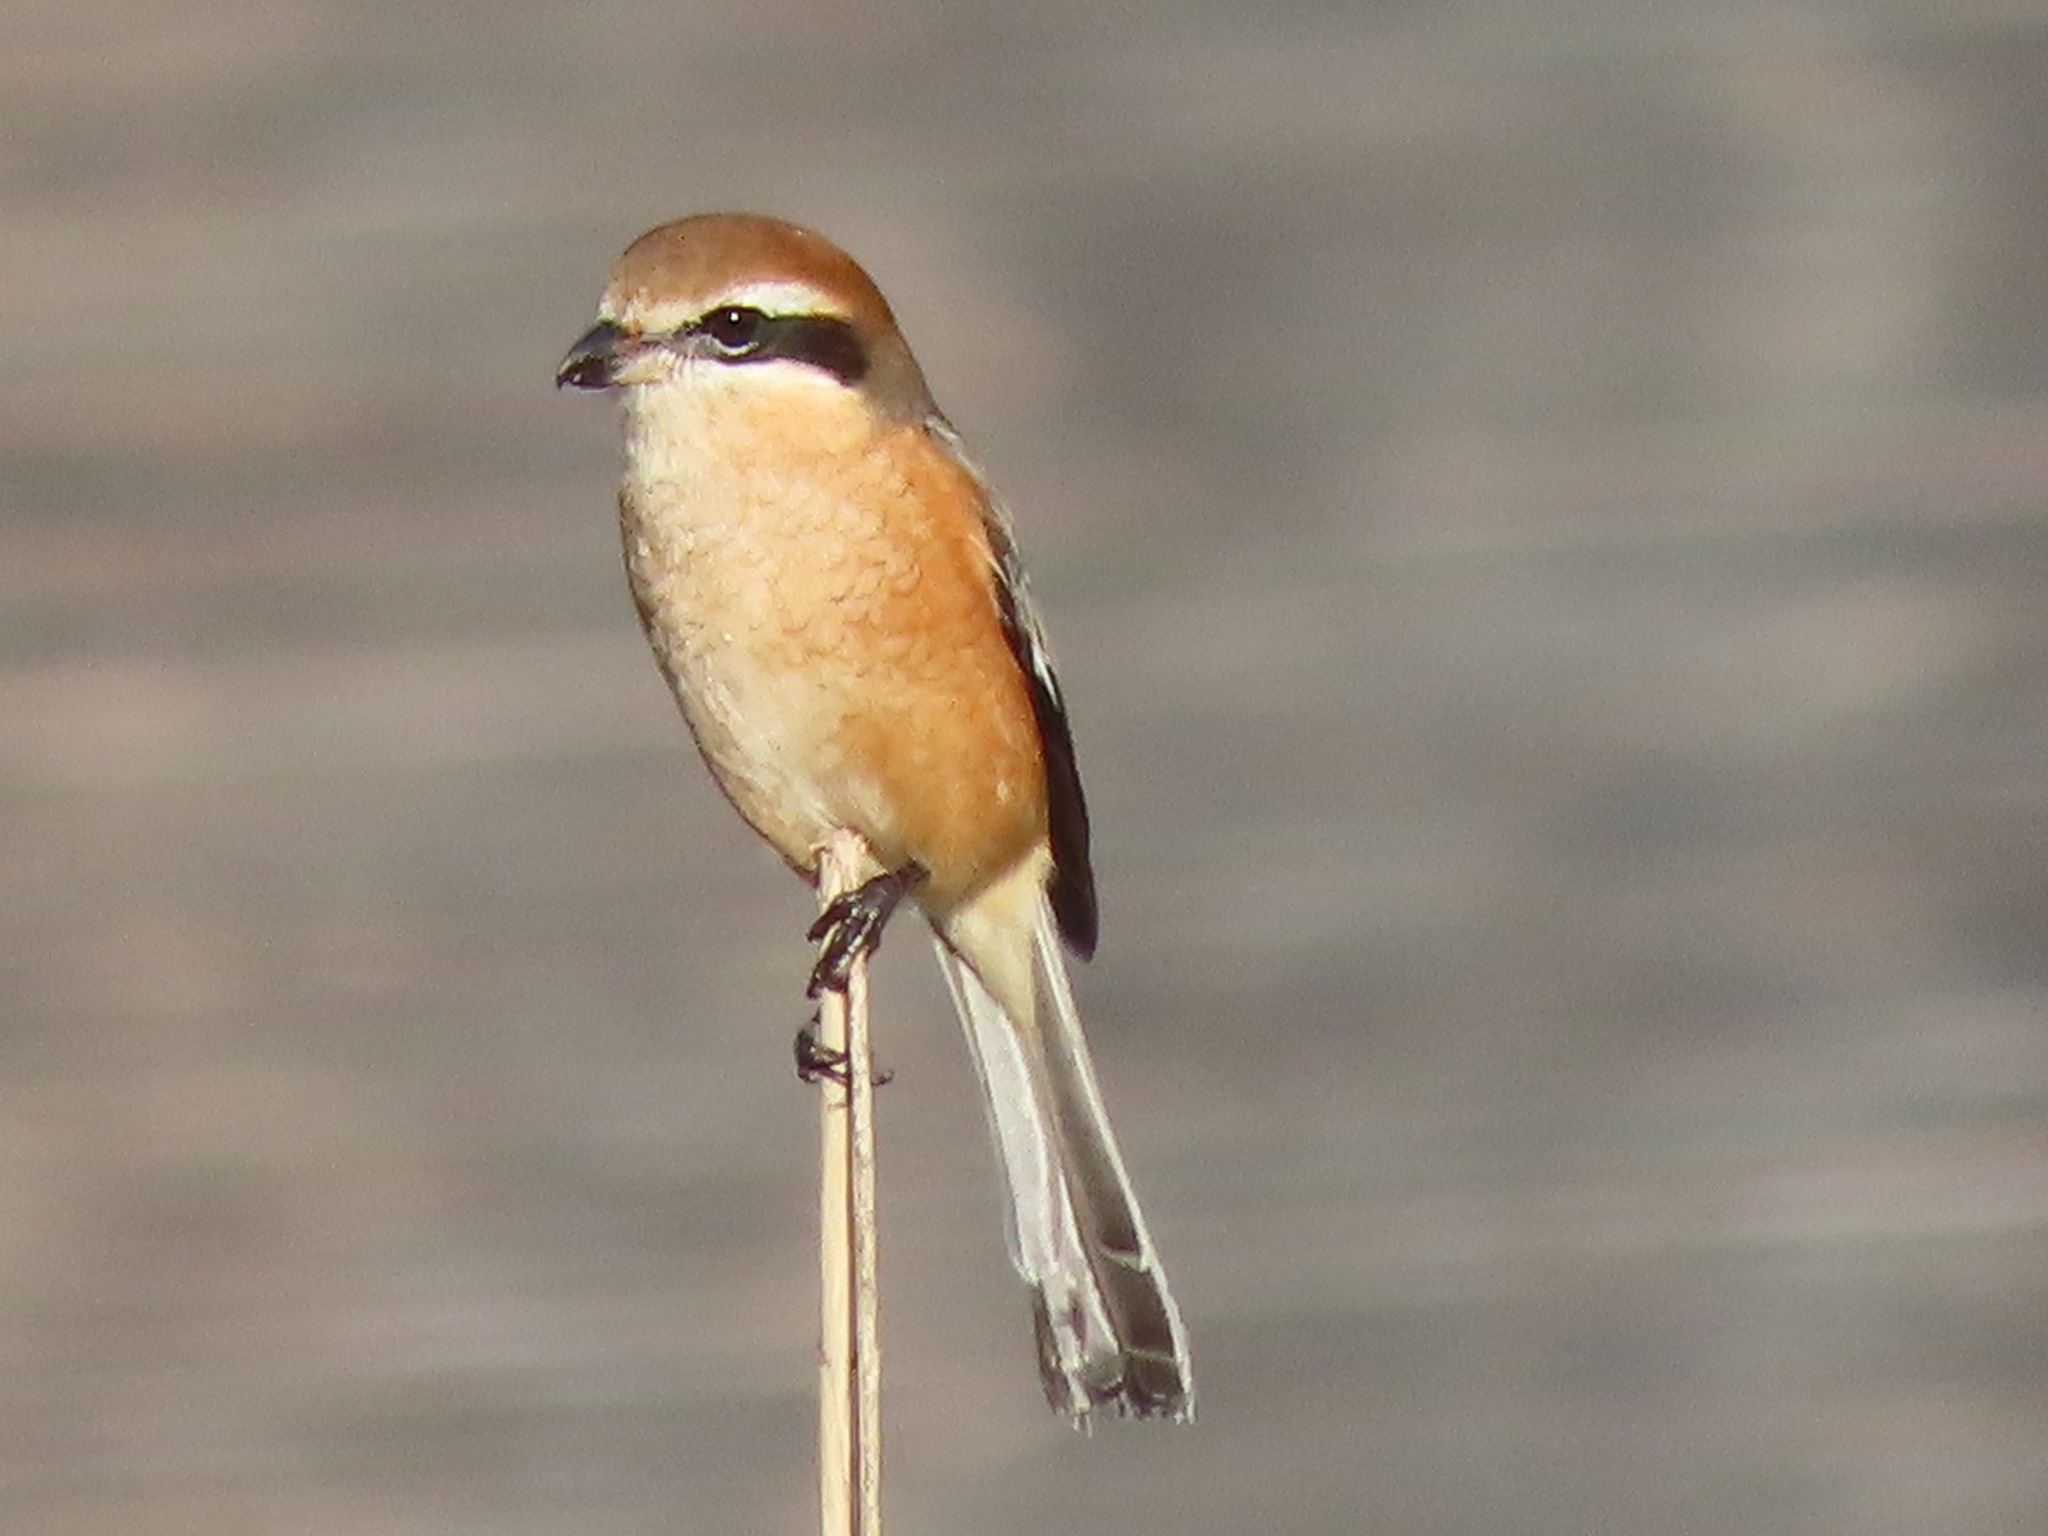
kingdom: Animalia
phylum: Chordata
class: Aves
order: Passeriformes
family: Laniidae
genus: Lanius
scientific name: Lanius bucephalus
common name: Bull-headed shrike
